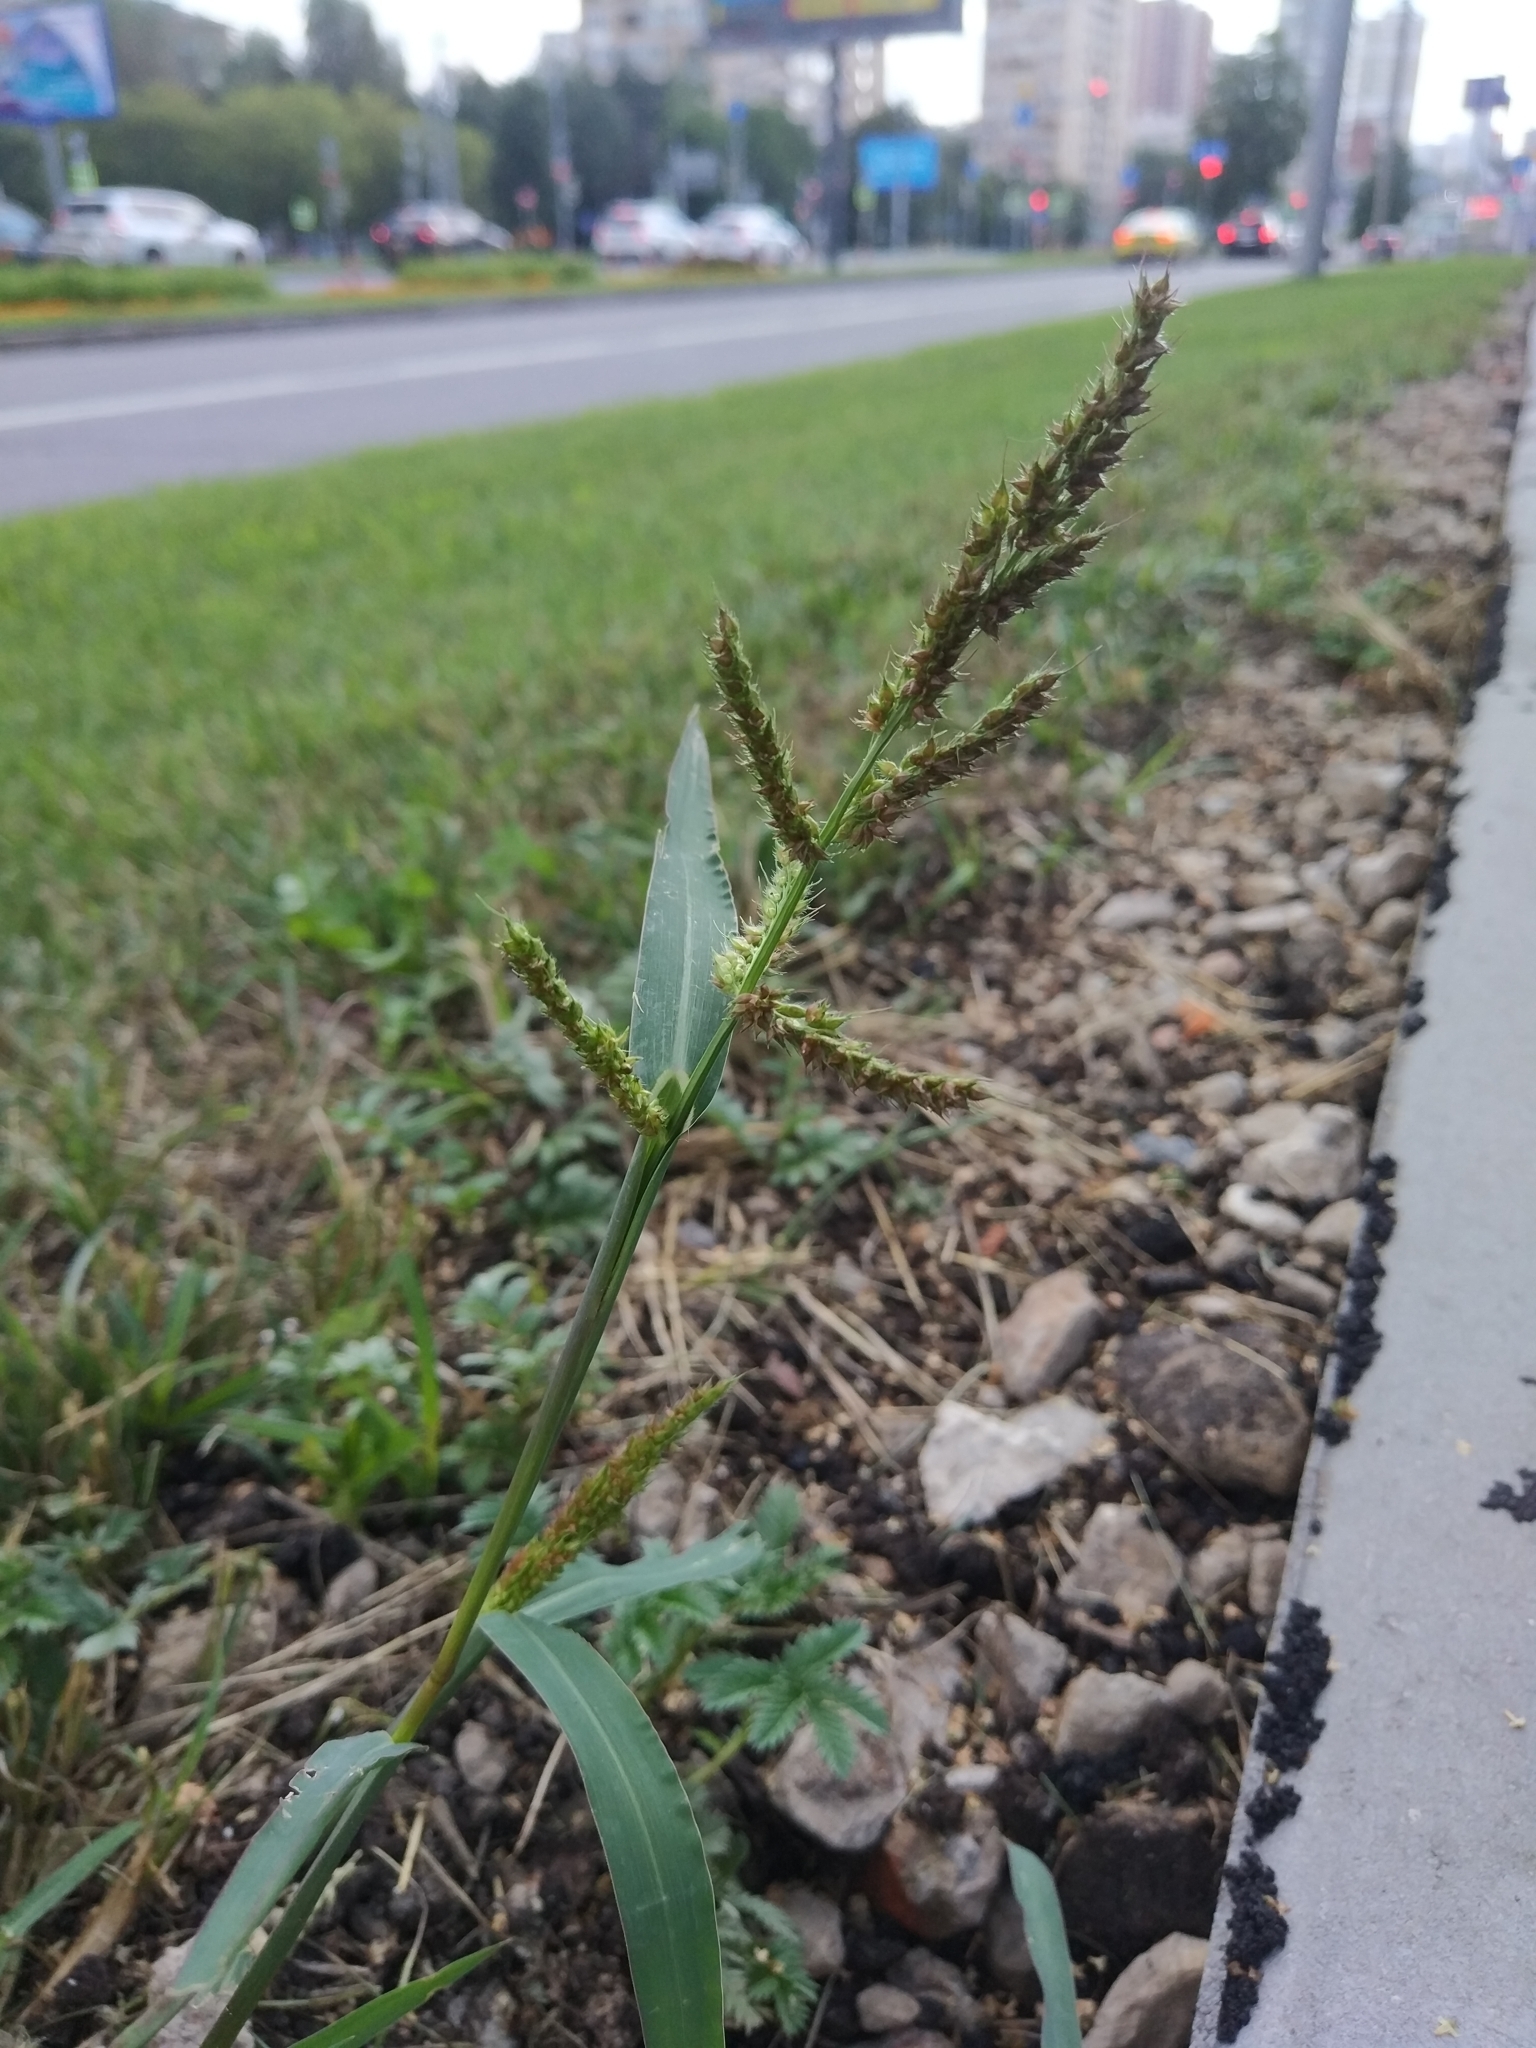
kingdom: Plantae
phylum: Tracheophyta
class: Liliopsida
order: Poales
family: Poaceae
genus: Echinochloa
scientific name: Echinochloa crus-galli
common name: Cockspur
